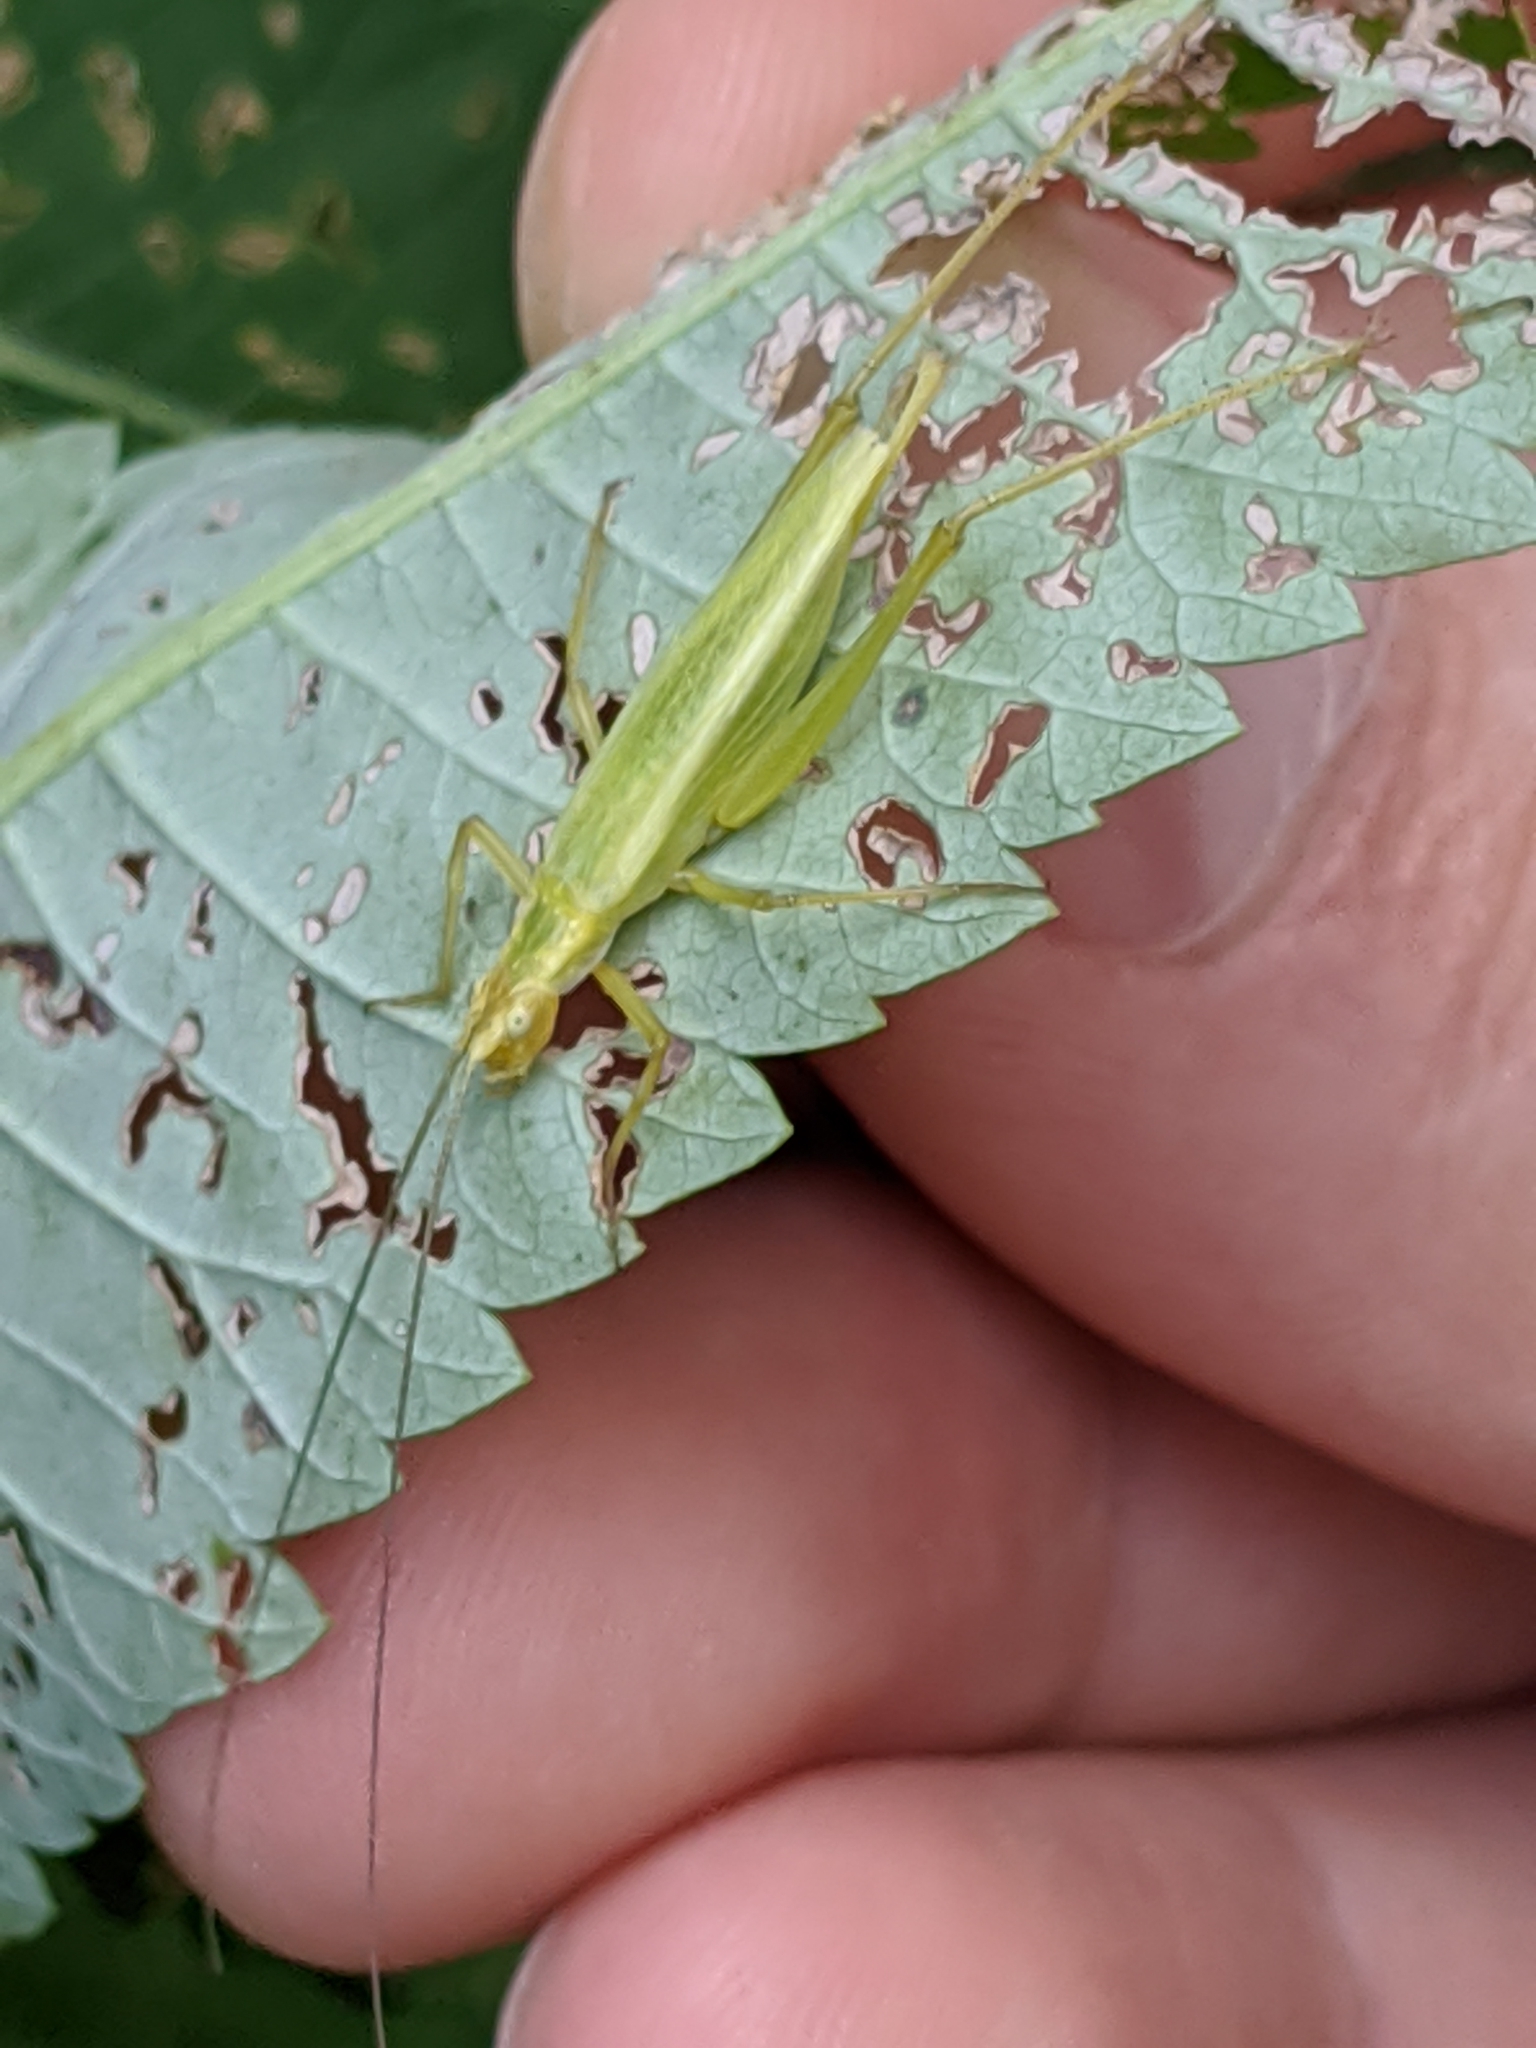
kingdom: Animalia
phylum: Arthropoda
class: Insecta
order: Orthoptera
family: Gryllidae
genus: Oecanthus
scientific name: Oecanthus nigricornis
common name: Black-horned tree cricket
